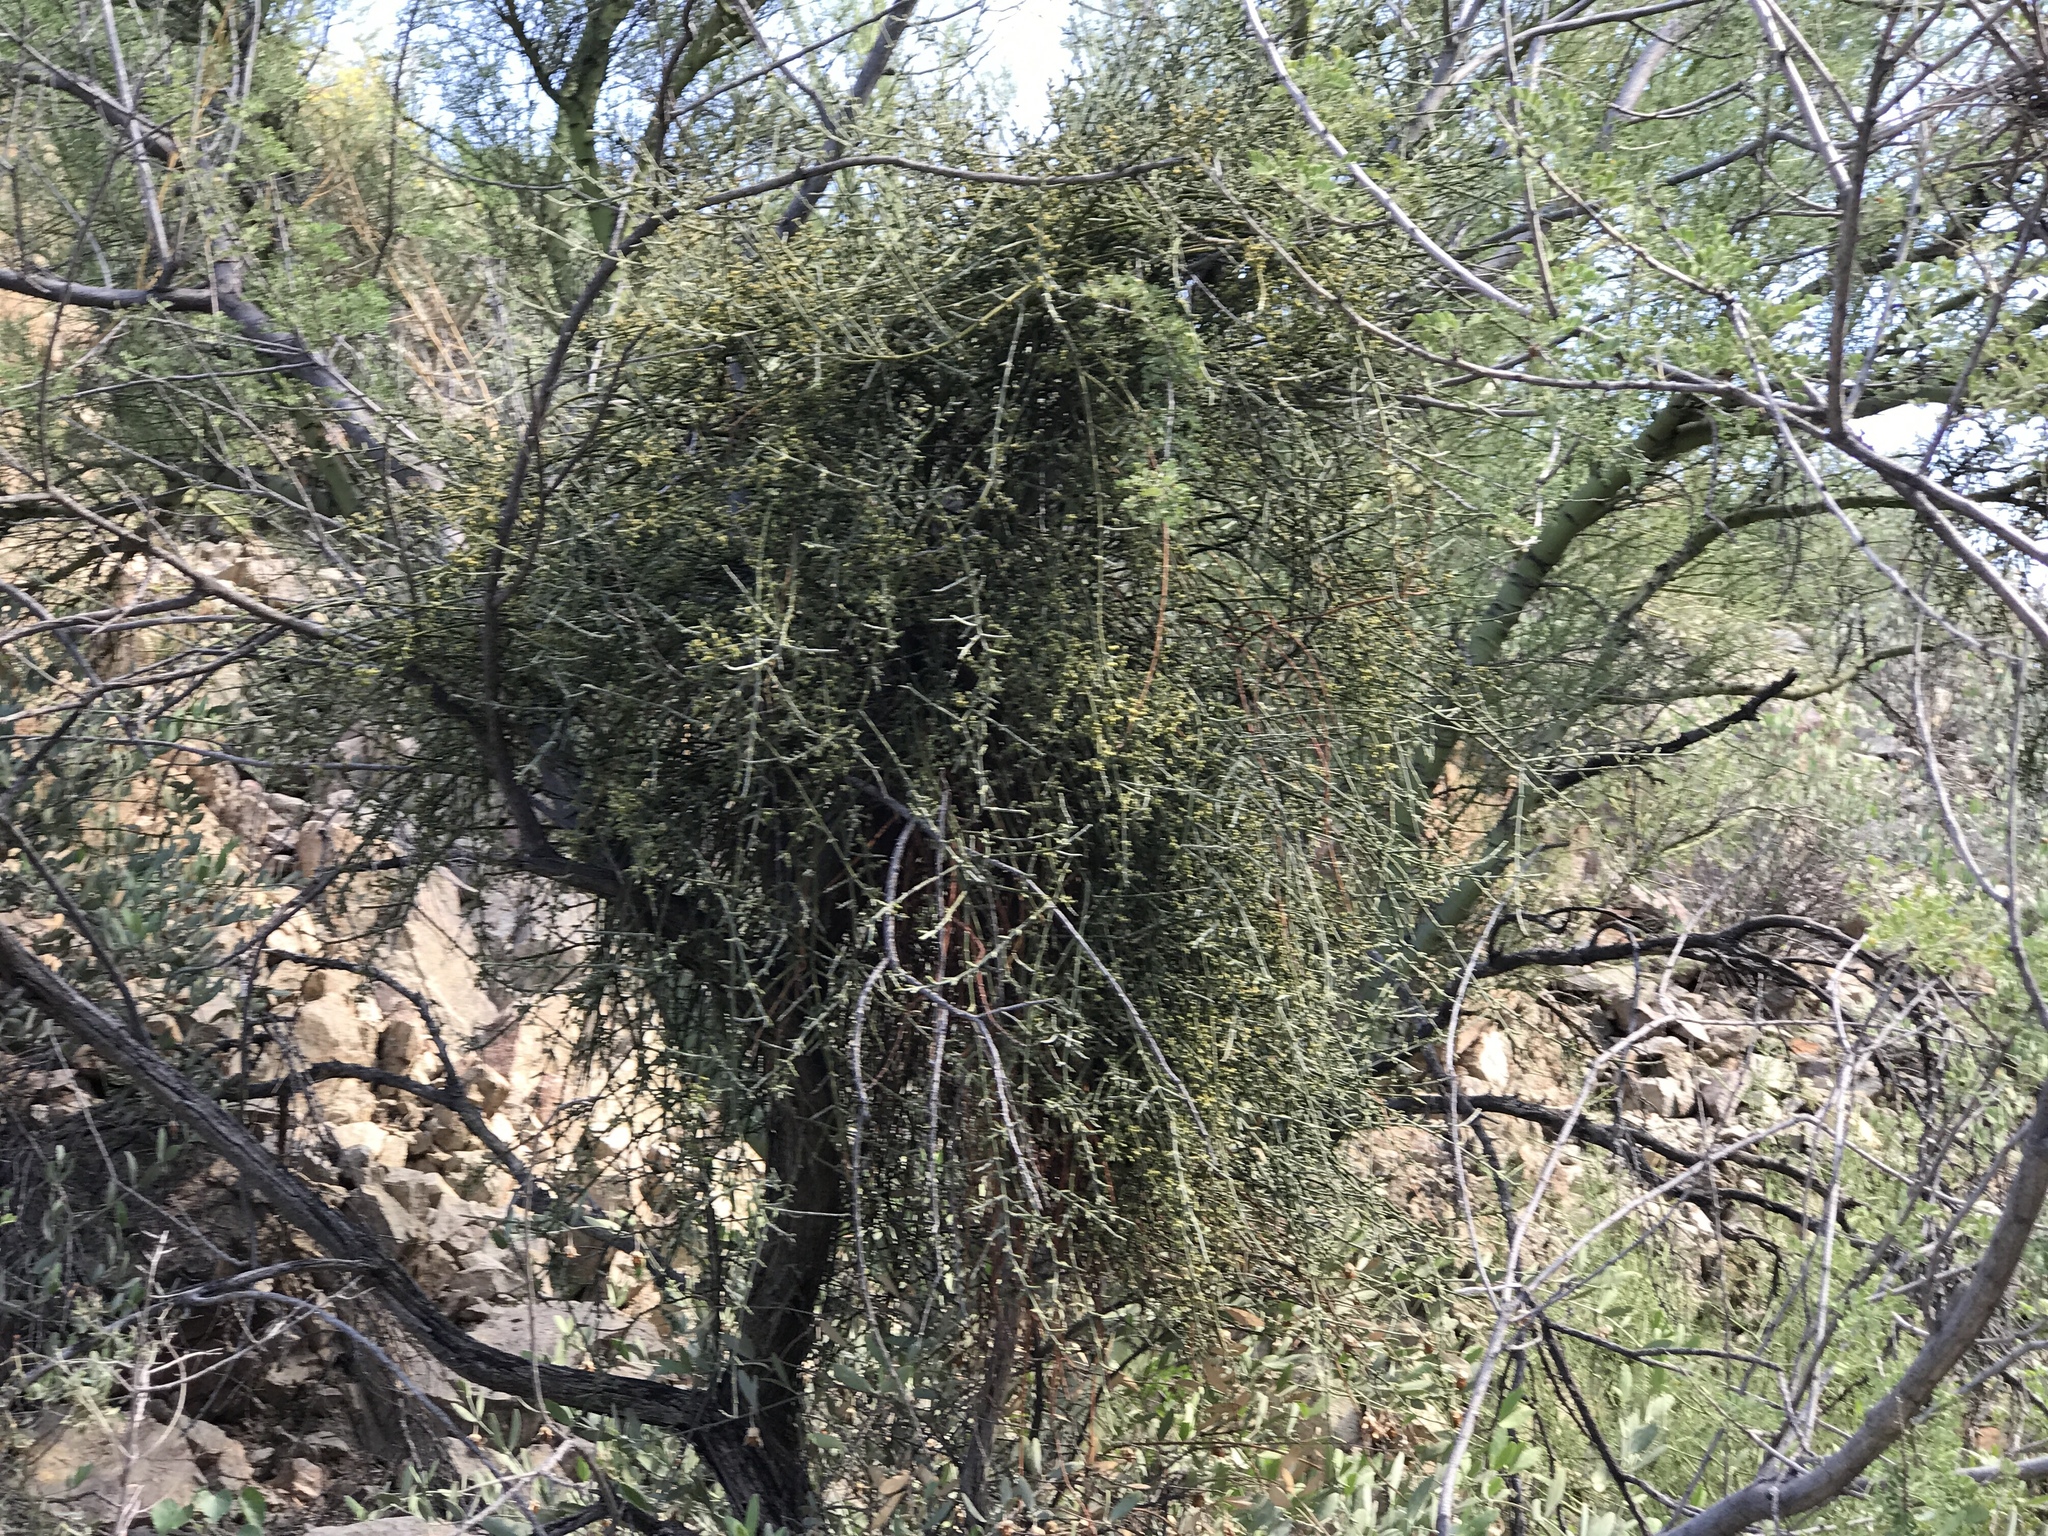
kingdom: Plantae
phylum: Tracheophyta
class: Magnoliopsida
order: Santalales
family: Viscaceae
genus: Phoradendron
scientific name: Phoradendron californicum
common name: Acacia mistletoe
